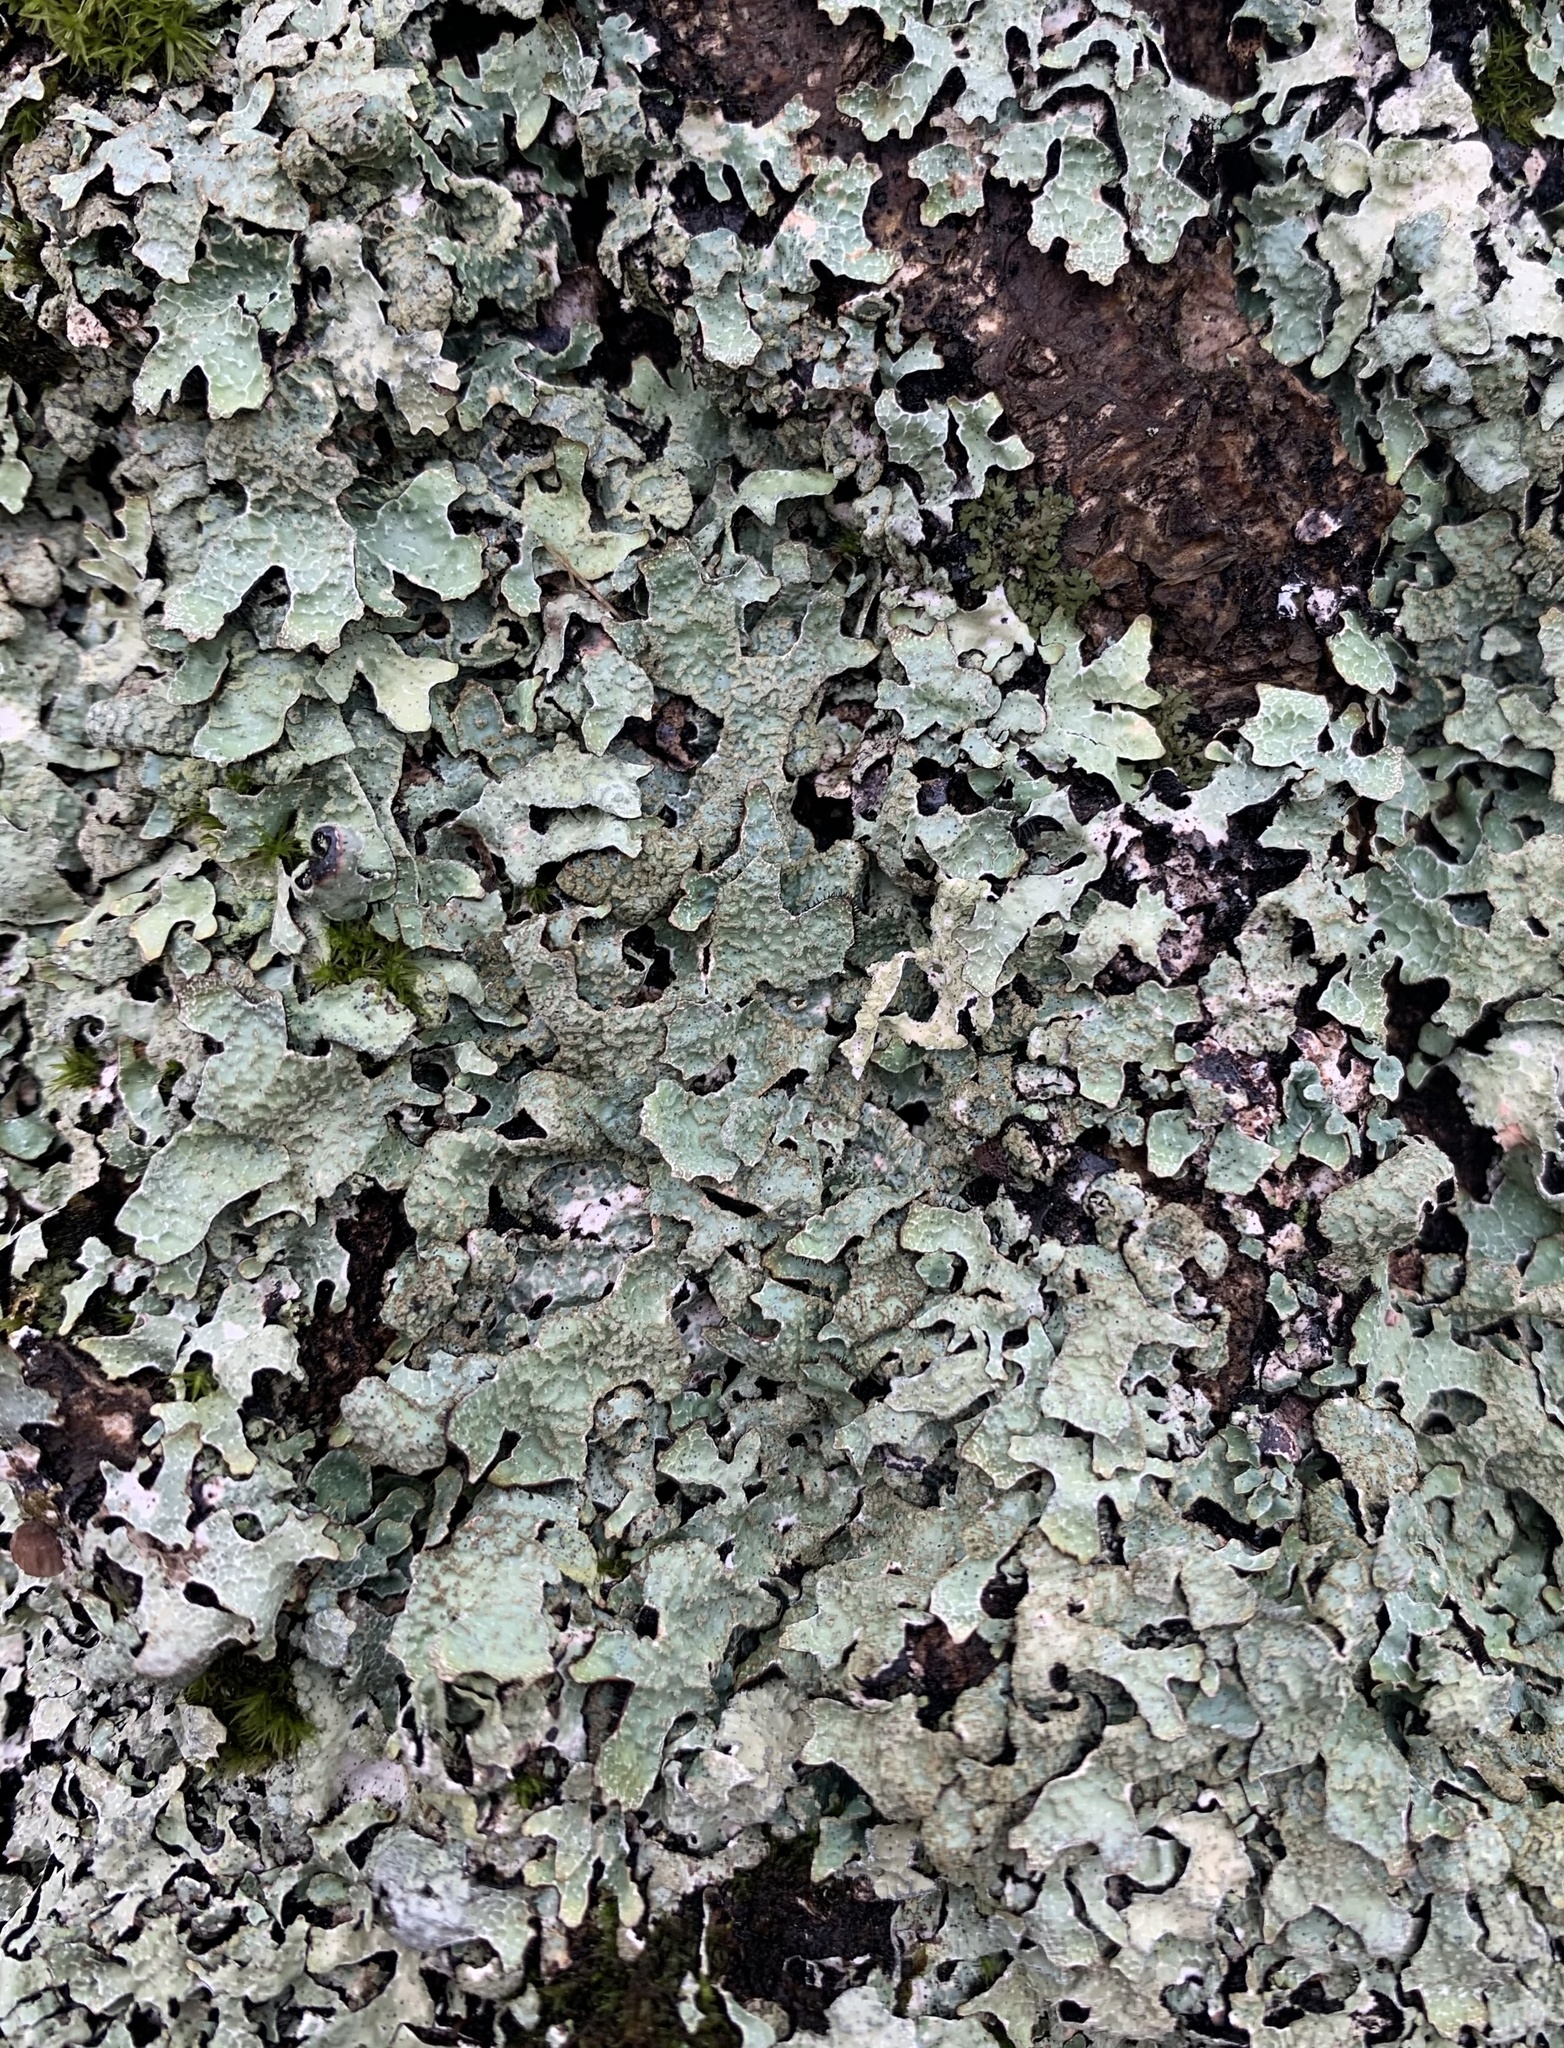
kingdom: Fungi
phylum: Ascomycota
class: Lecanoromycetes
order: Lecanorales
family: Parmeliaceae
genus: Parmelia
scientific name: Parmelia sulcata
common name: Netted shield lichen
